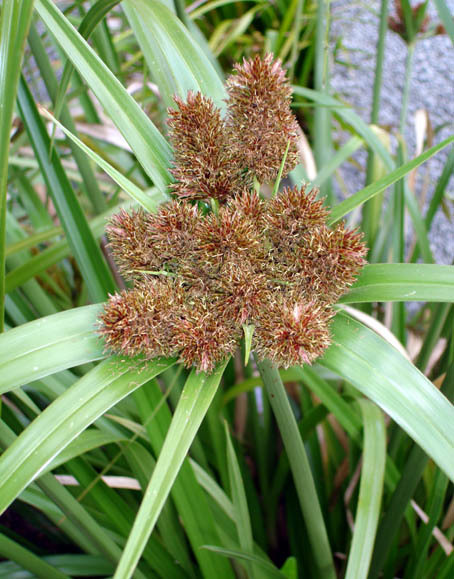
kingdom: Plantae
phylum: Tracheophyta
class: Liliopsida
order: Poales
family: Cyperaceae
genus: Cyperus
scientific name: Cyperus insularis
